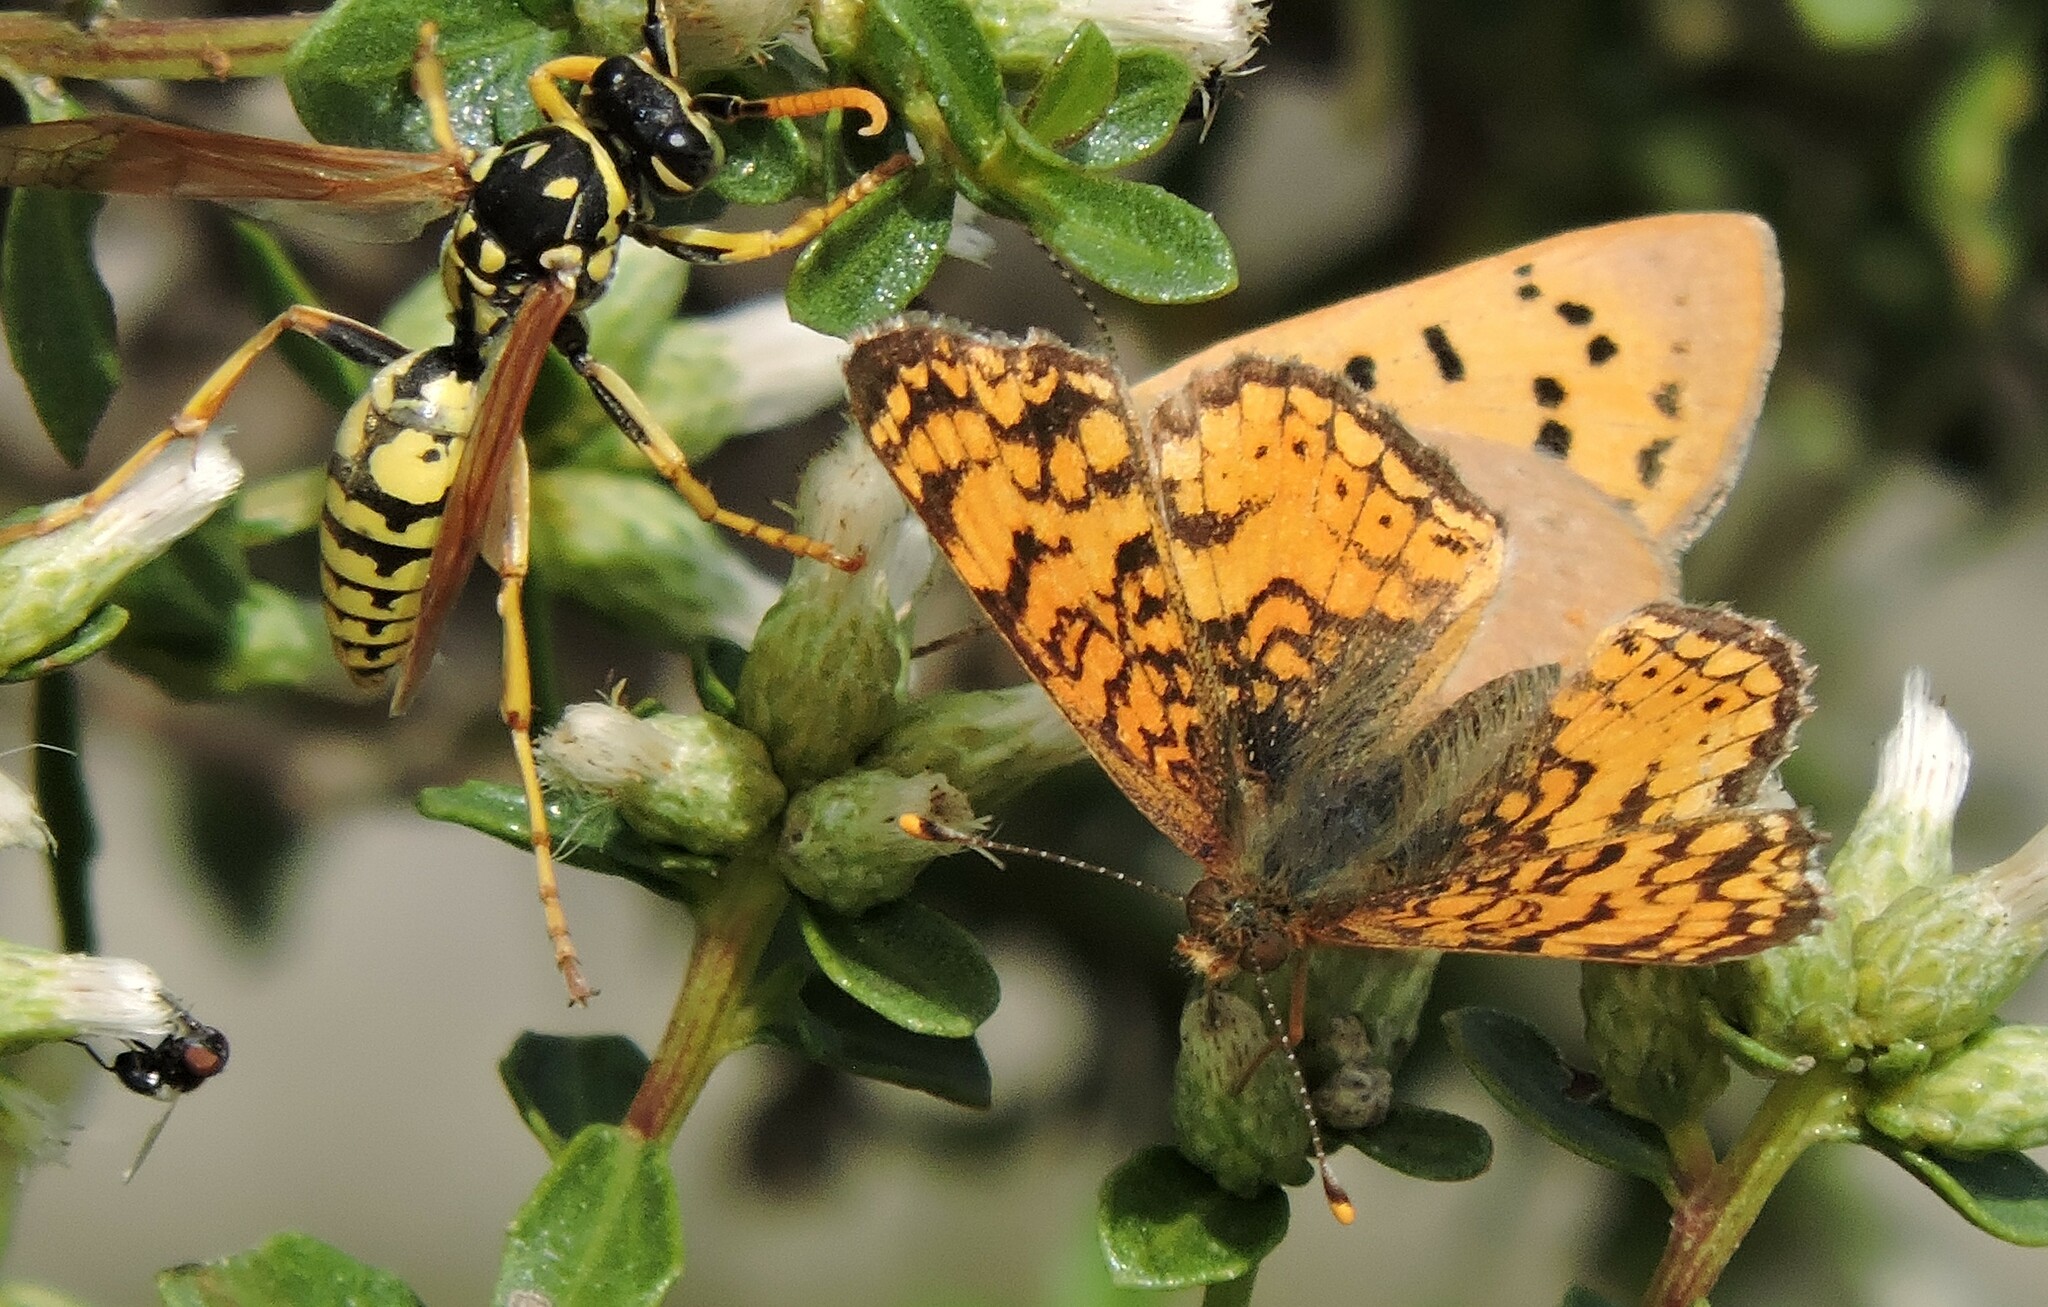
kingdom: Animalia
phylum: Arthropoda
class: Insecta
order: Lepidoptera
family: Nymphalidae
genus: Eresia
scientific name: Eresia aveyrona
